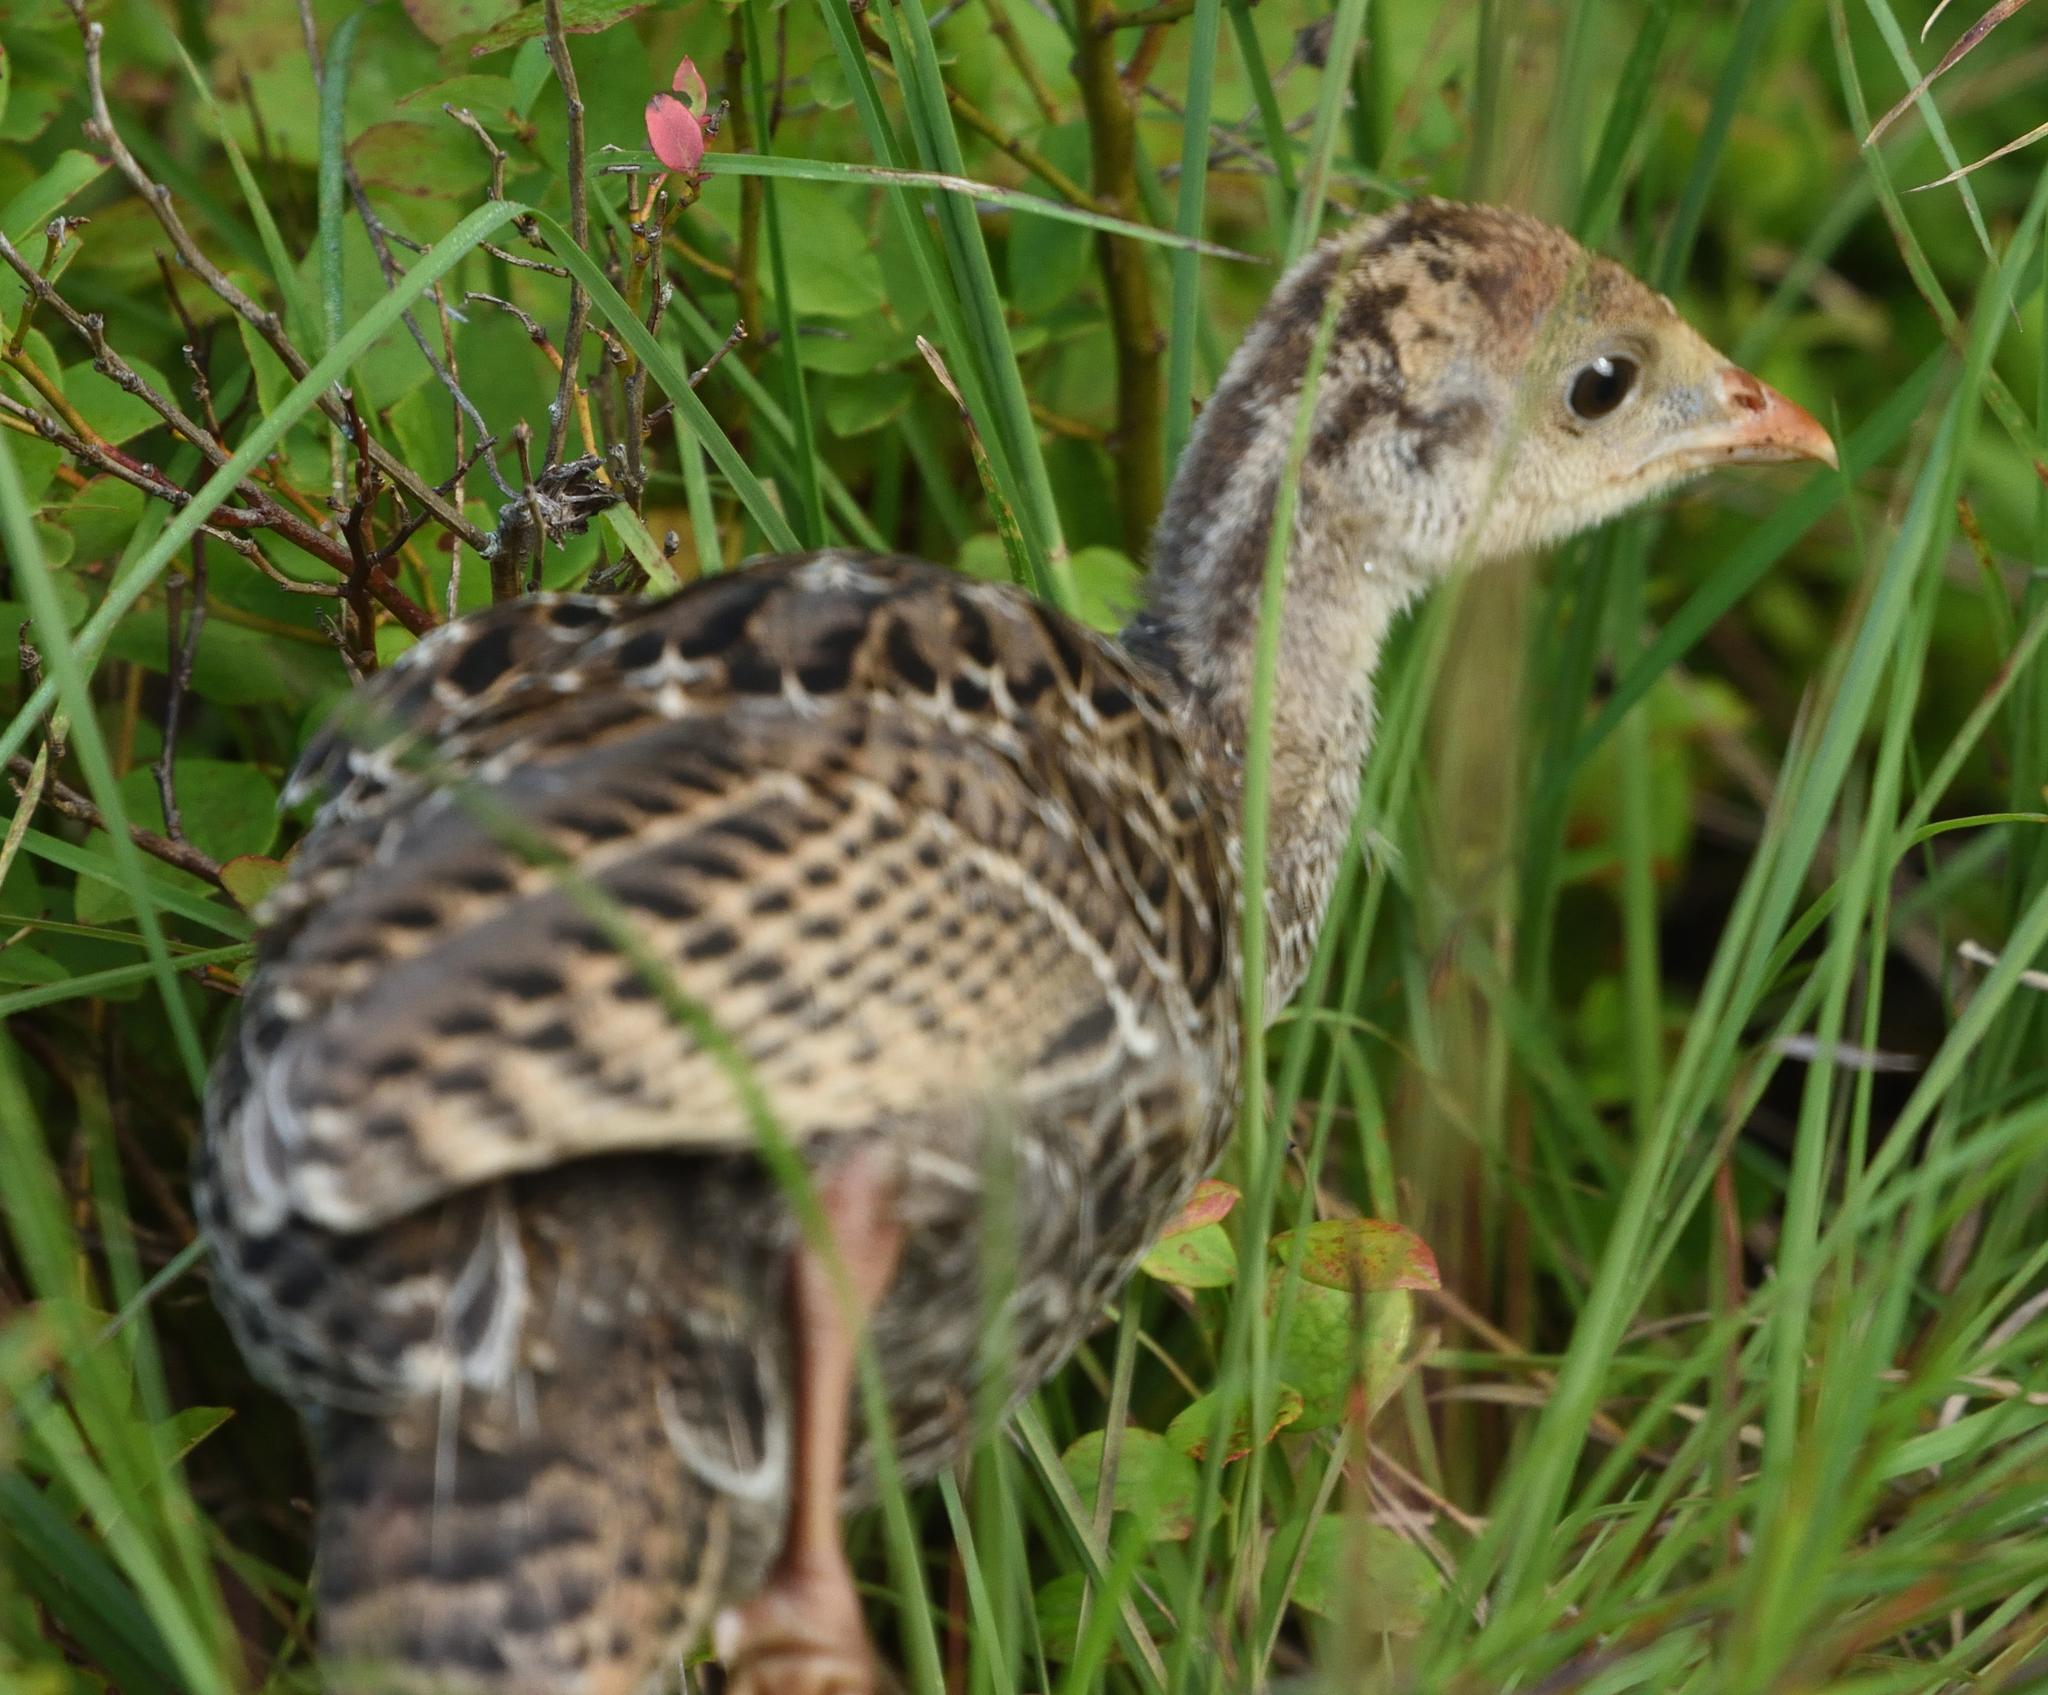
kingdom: Animalia
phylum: Chordata
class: Aves
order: Galliformes
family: Phasianidae
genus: Meleagris
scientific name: Meleagris gallopavo
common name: Wild turkey
